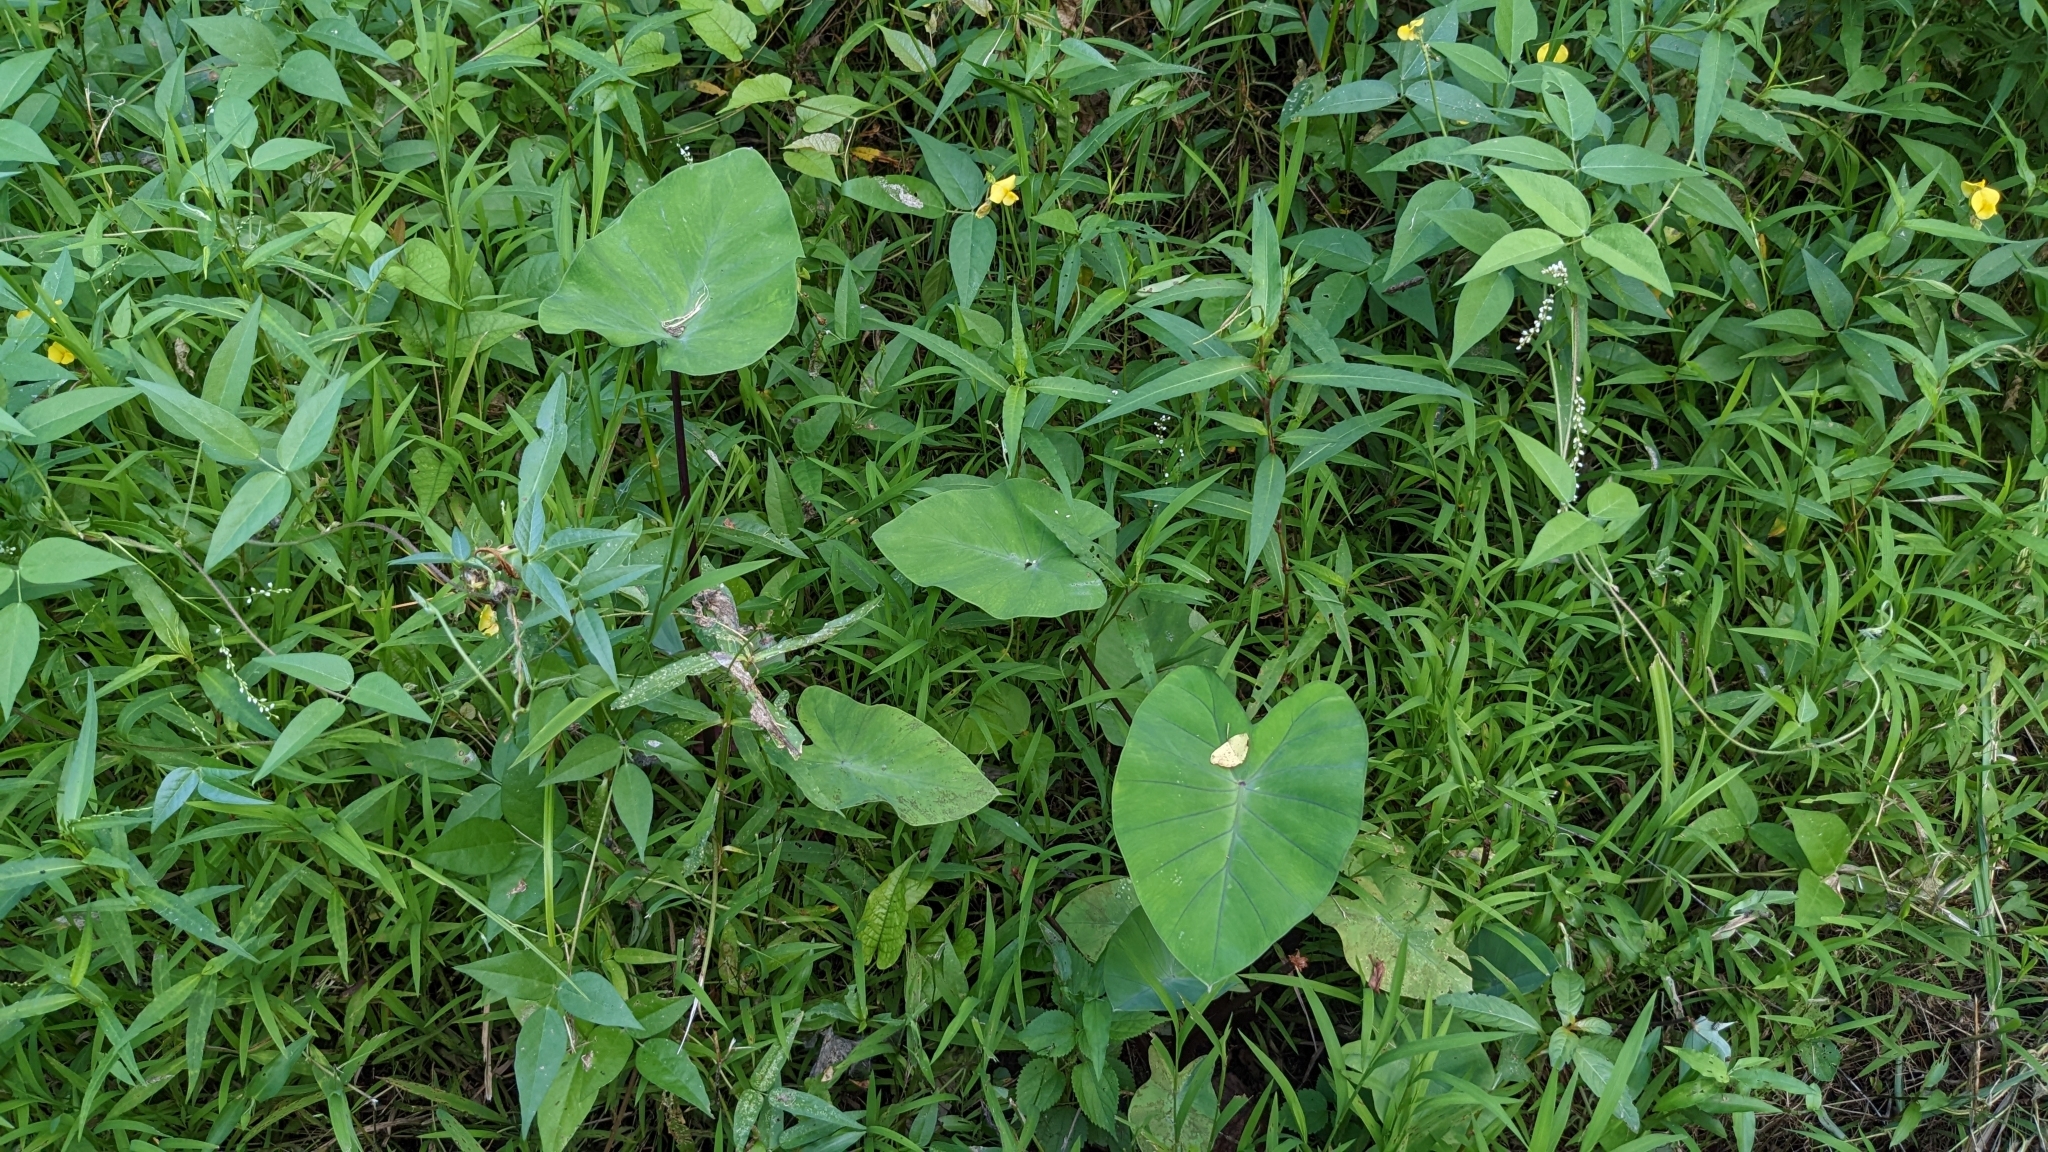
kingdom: Plantae
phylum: Tracheophyta
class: Liliopsida
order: Alismatales
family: Araceae
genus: Colocasia
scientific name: Colocasia esculenta
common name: Taro
